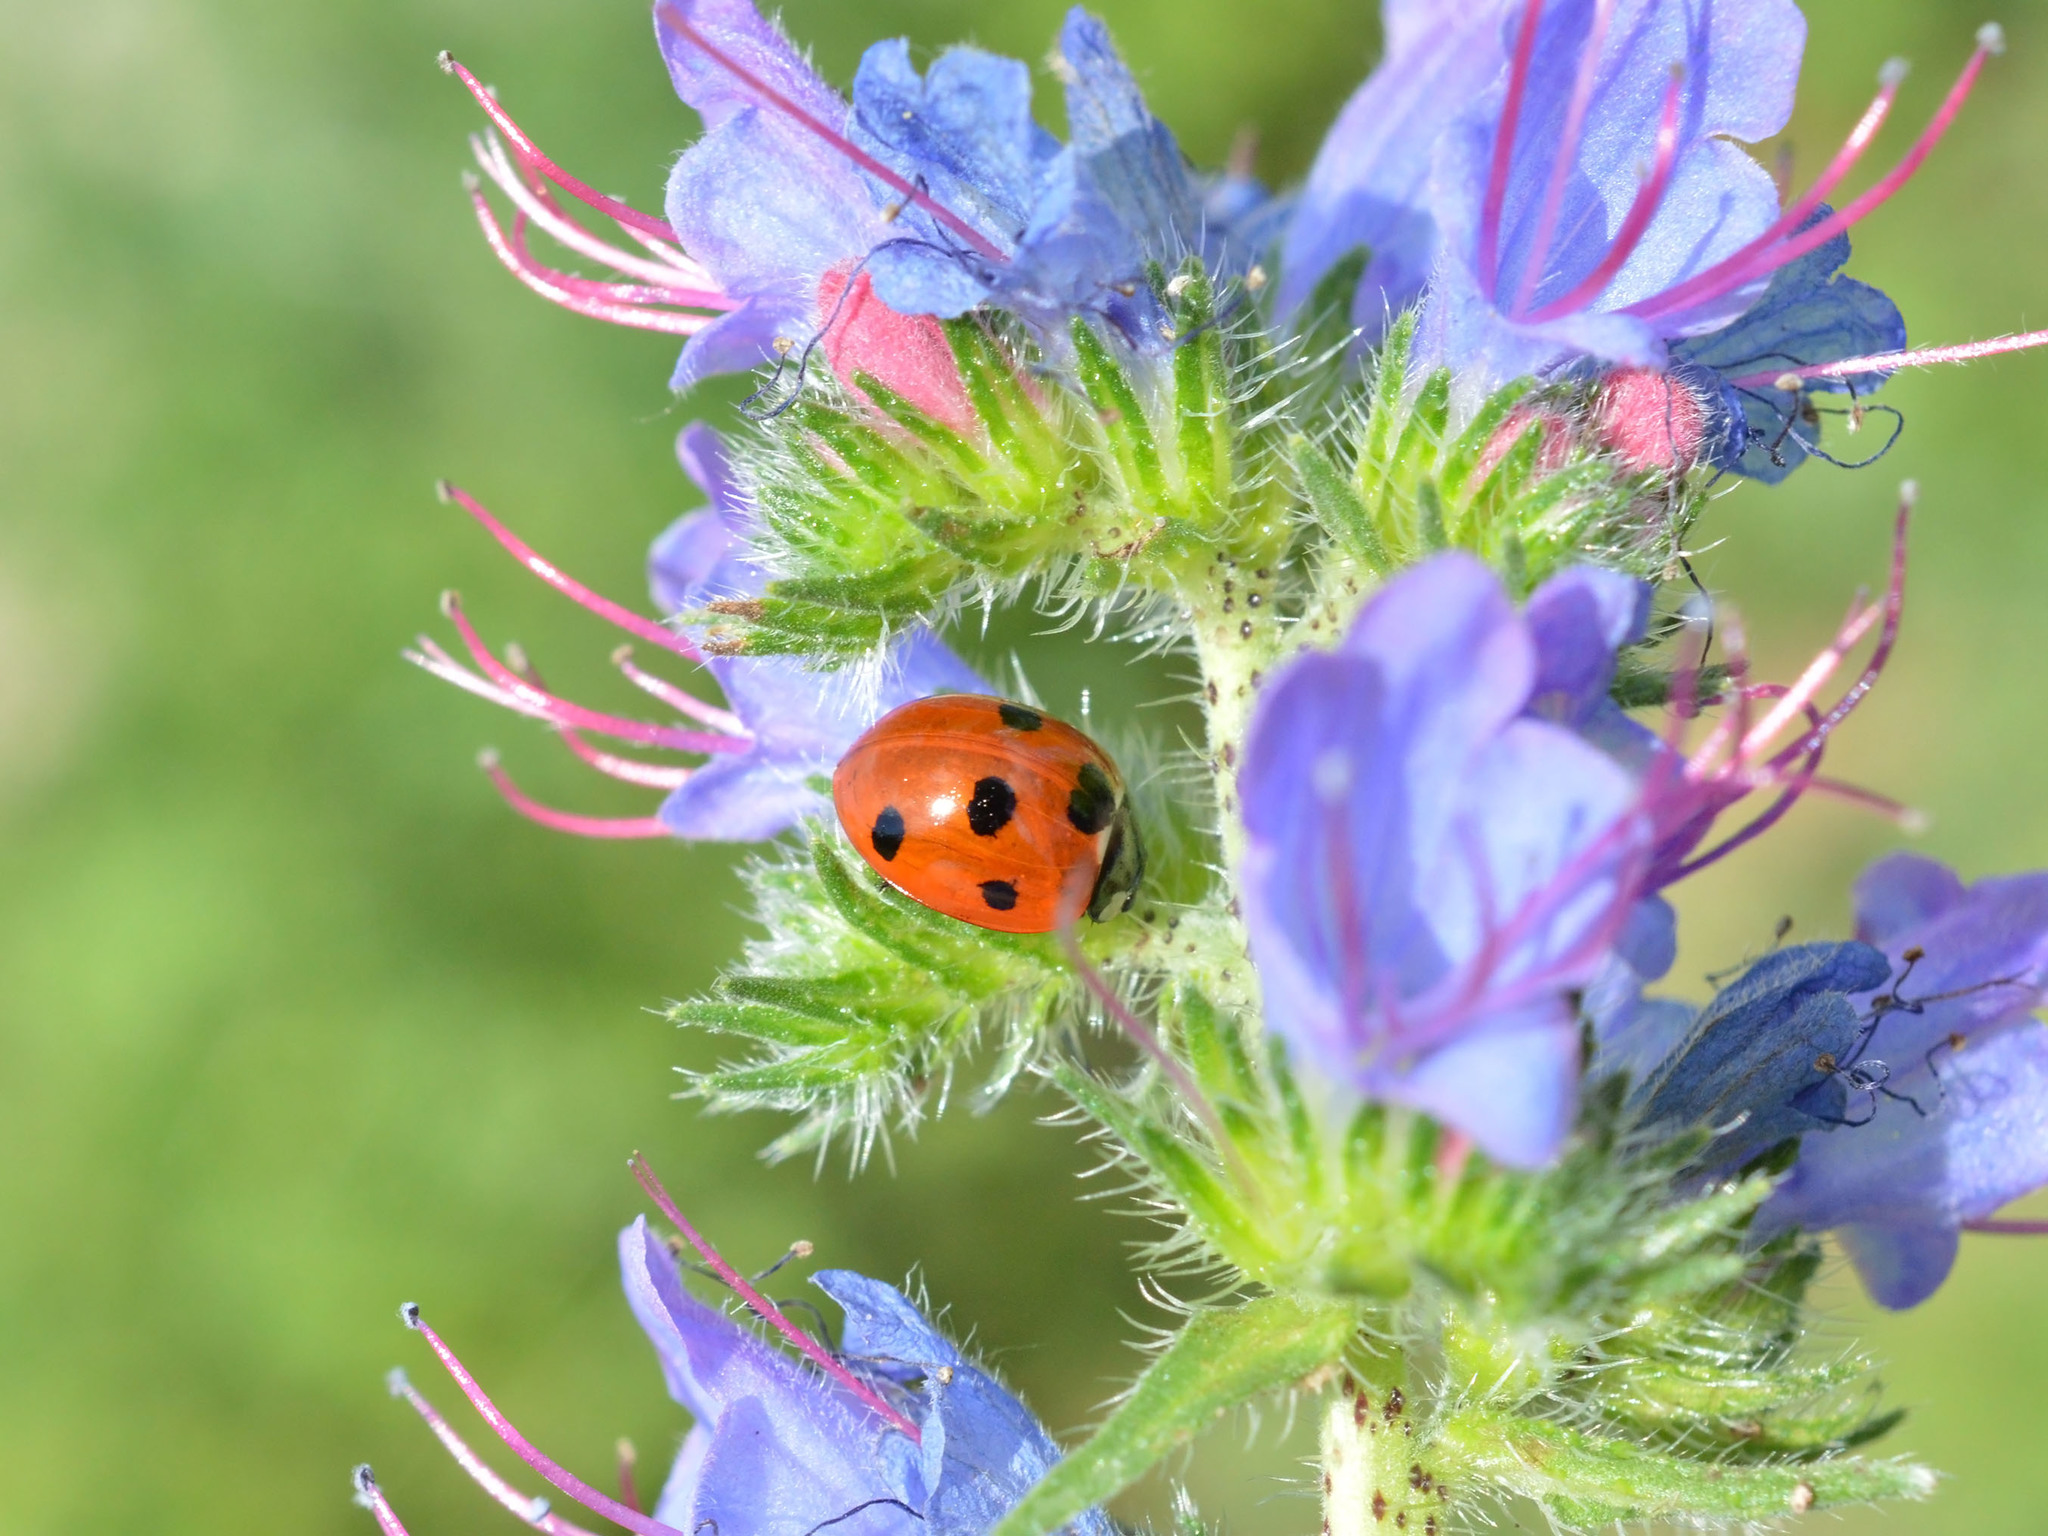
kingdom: Animalia
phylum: Arthropoda
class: Insecta
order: Coleoptera
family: Coccinellidae
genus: Coccinella
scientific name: Coccinella septempunctata
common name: Sevenspotted lady beetle
